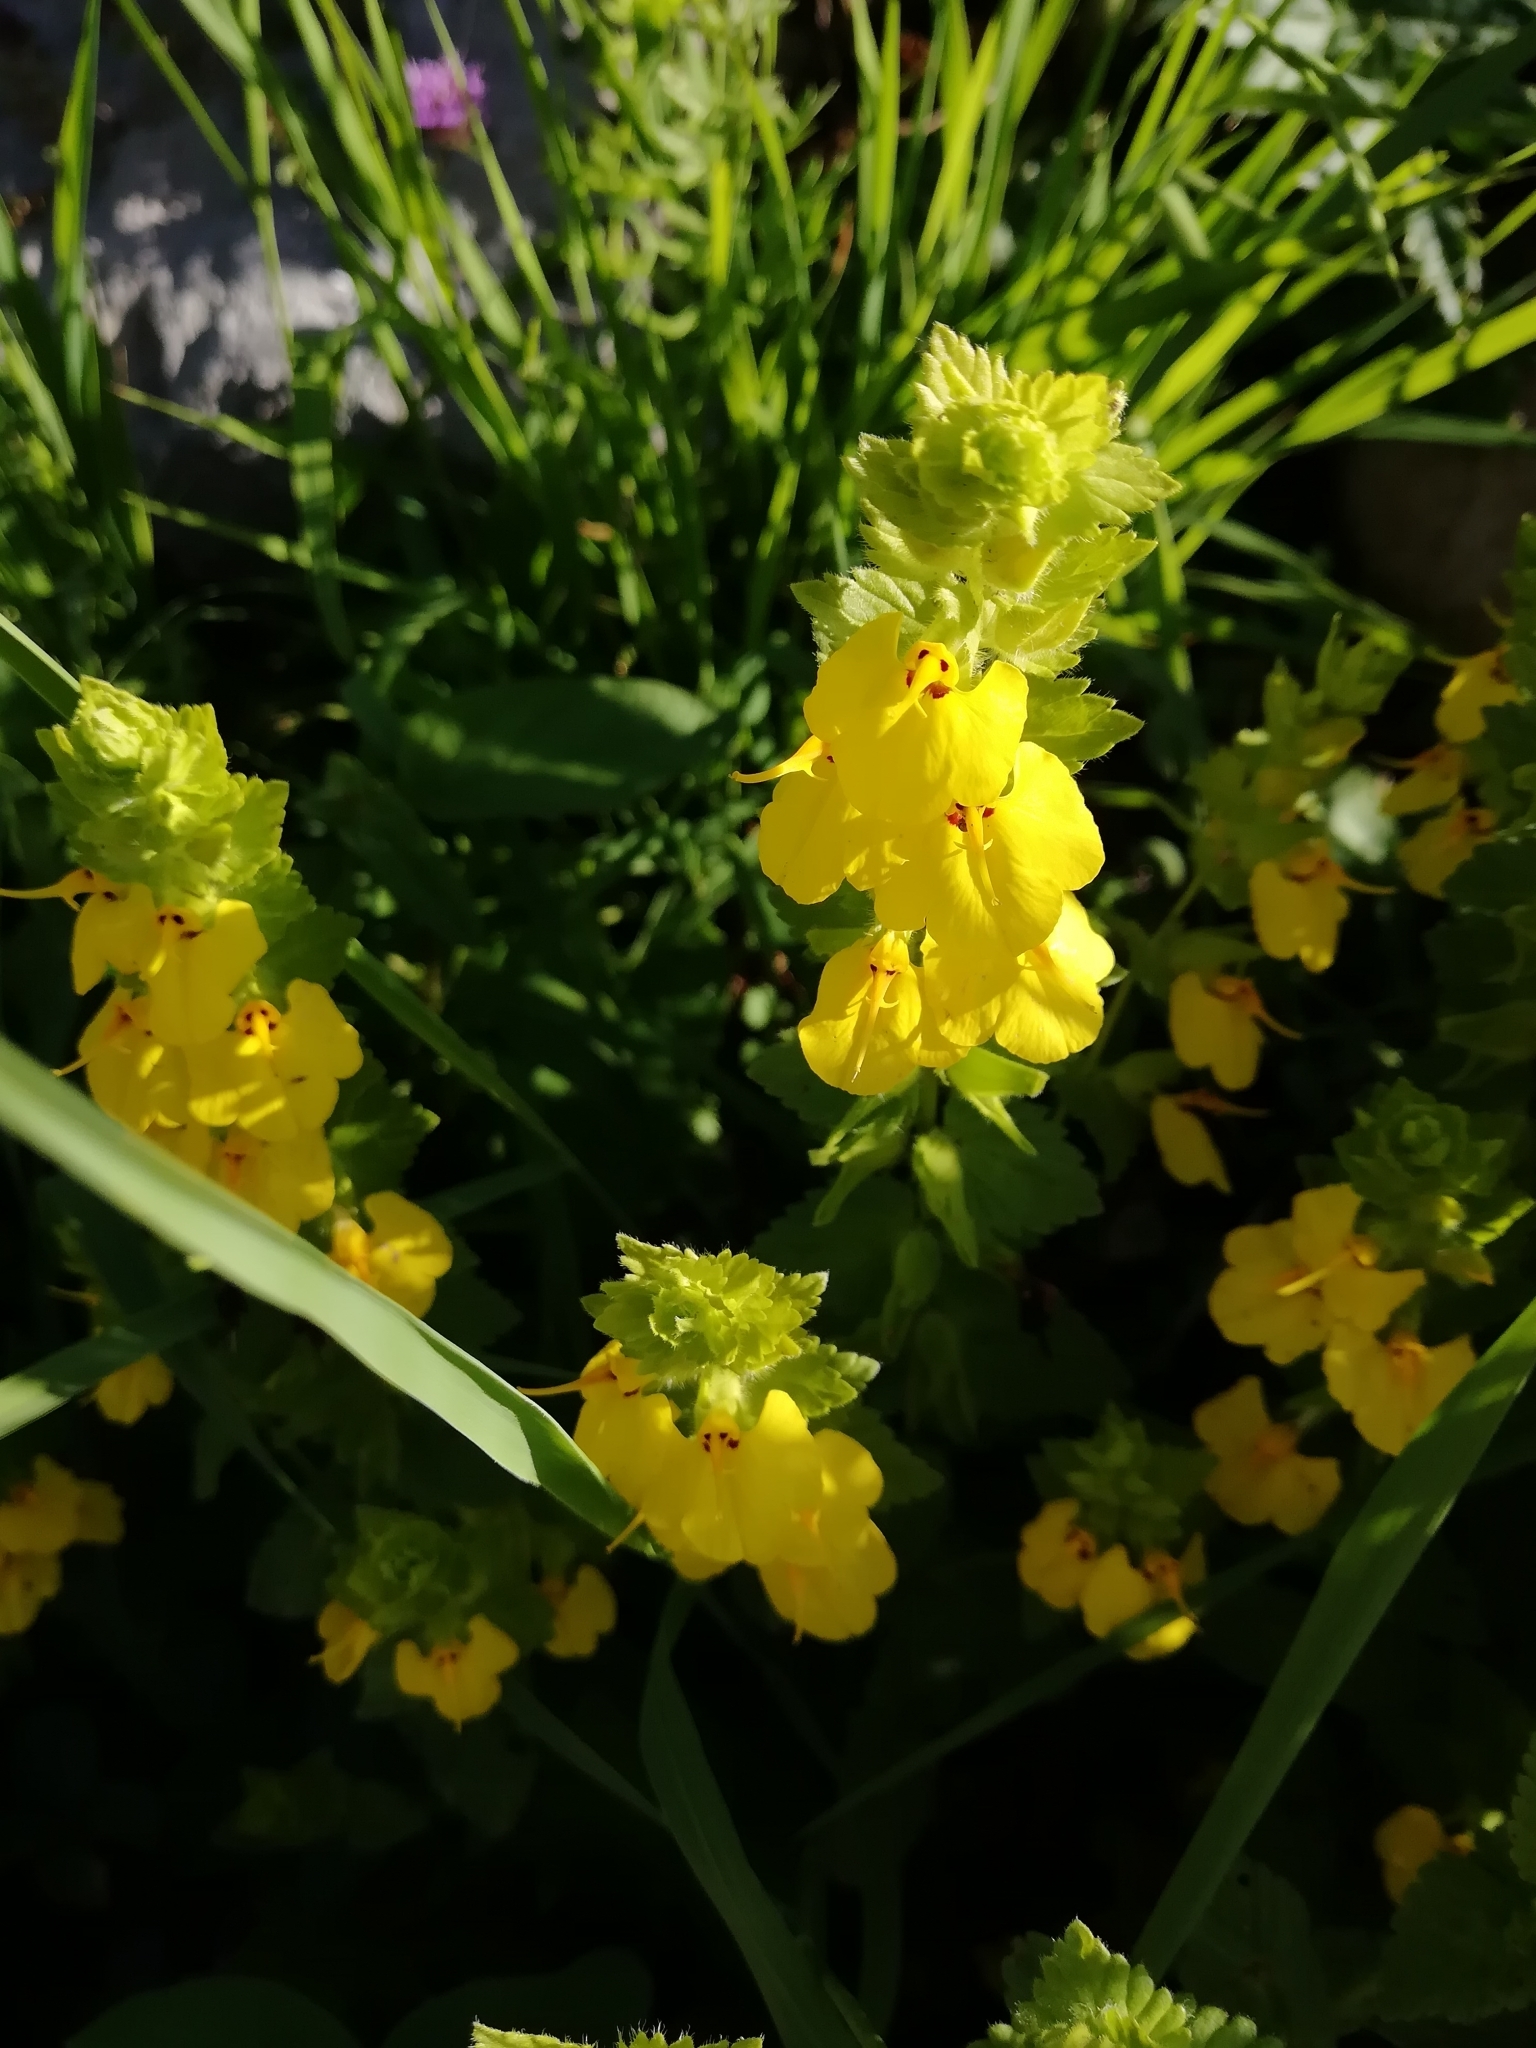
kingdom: Plantae
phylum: Tracheophyta
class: Magnoliopsida
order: Lamiales
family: Orobanchaceae
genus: Rhynchocorys
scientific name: Rhynchocorys elephas
